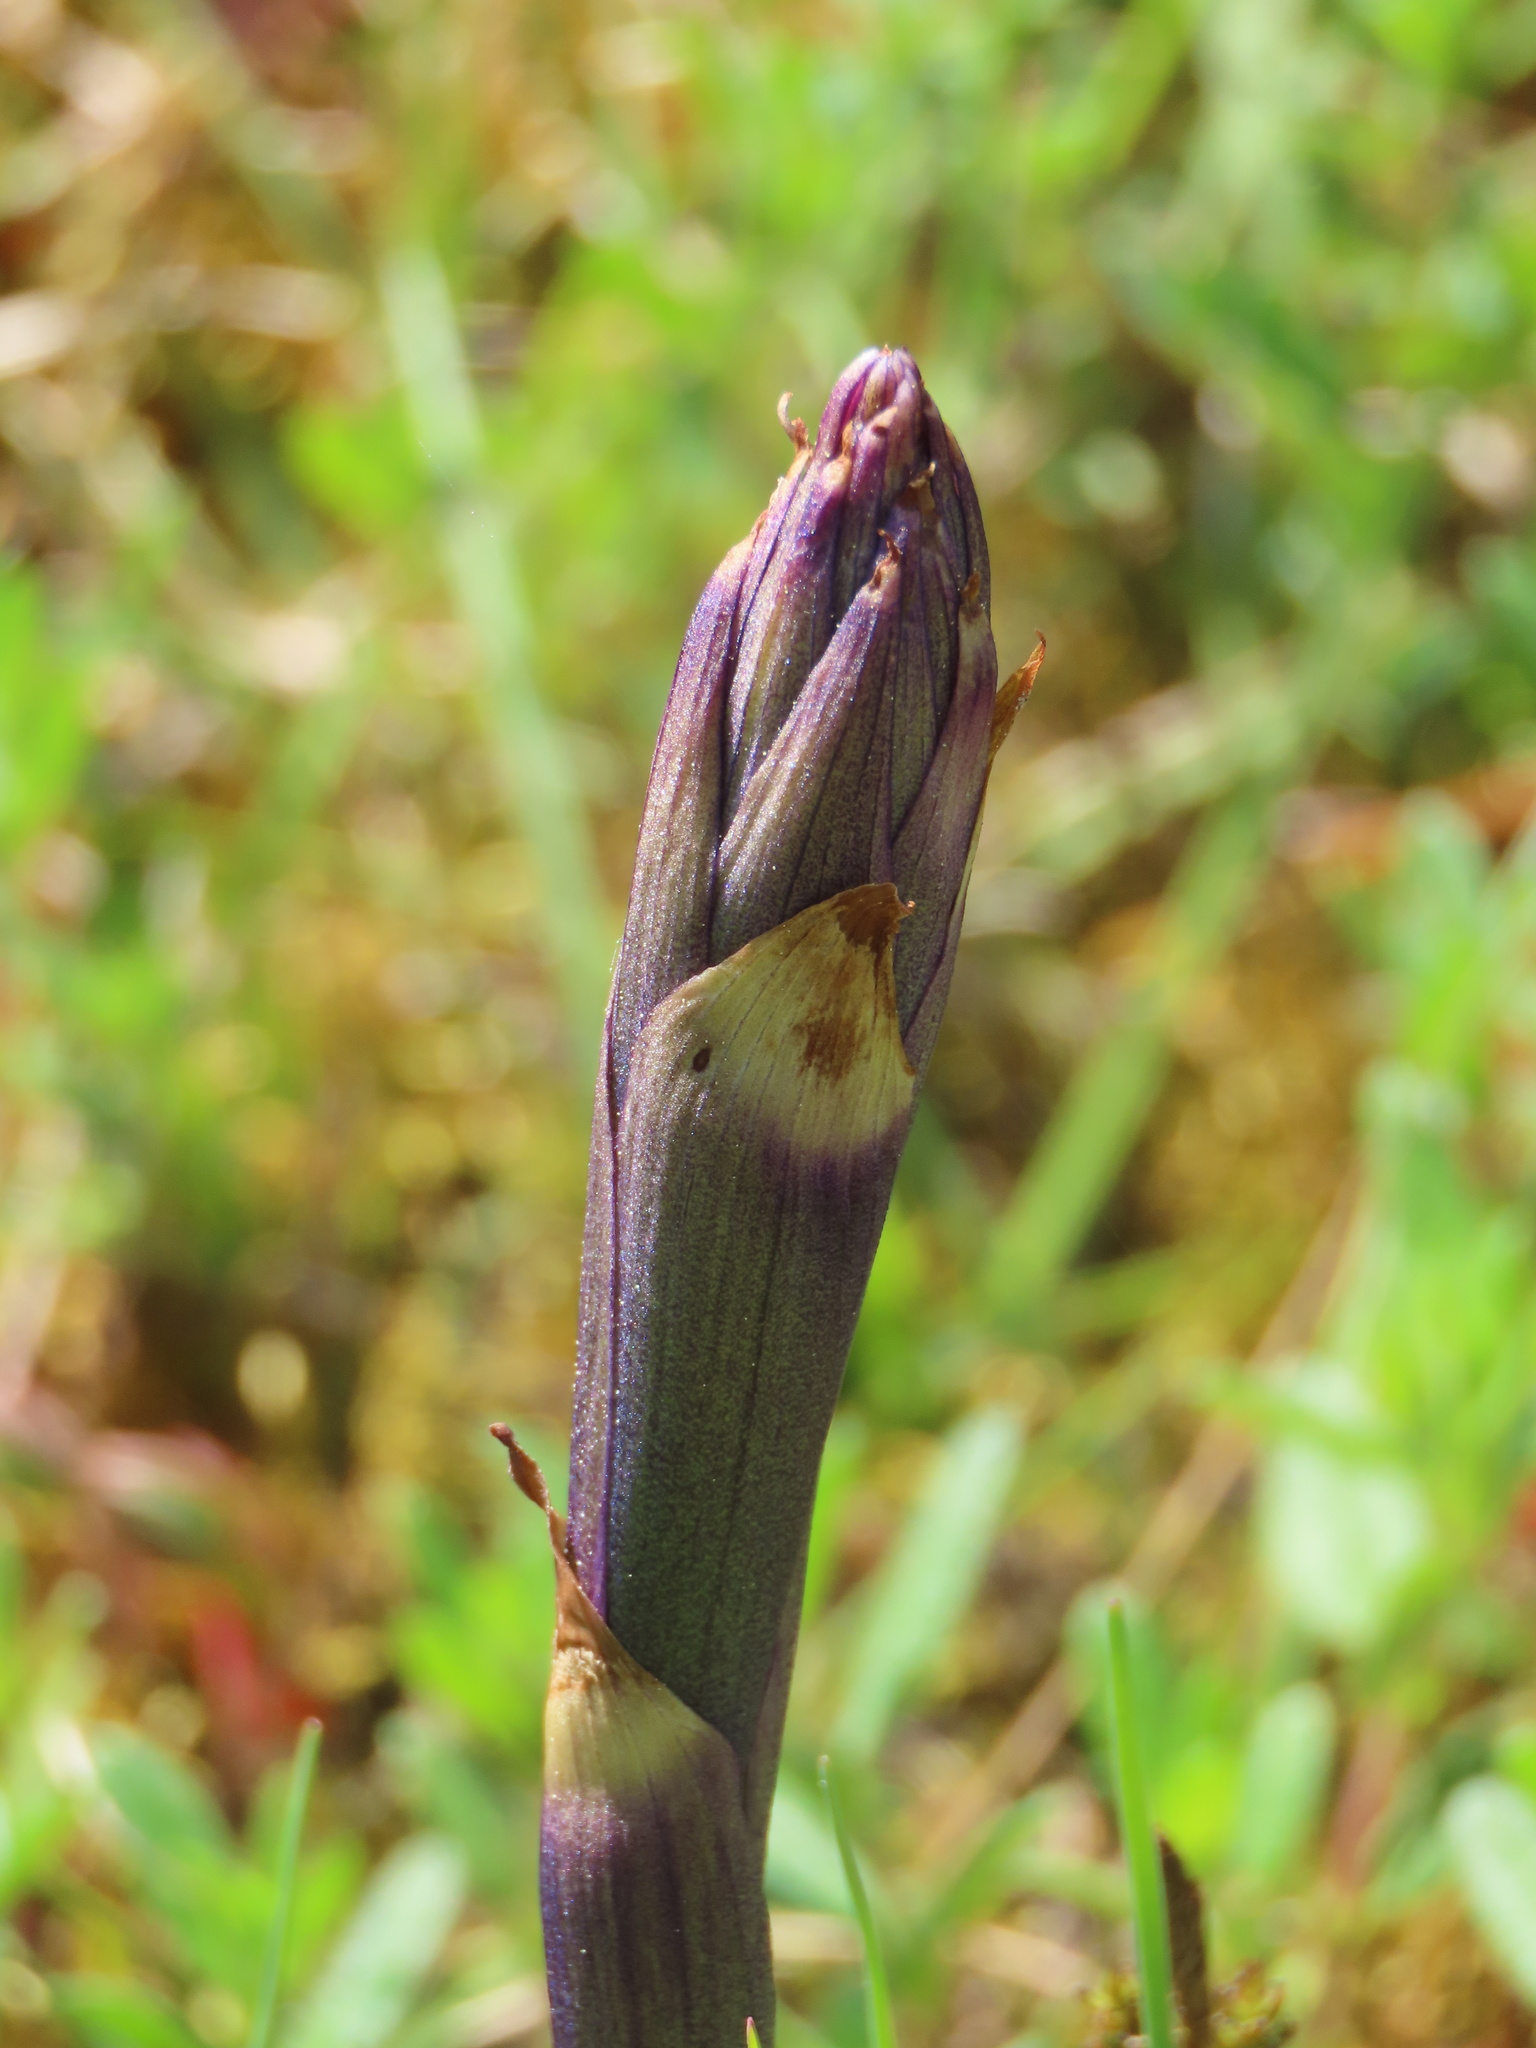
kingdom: Plantae
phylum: Tracheophyta
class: Liliopsida
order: Asparagales
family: Orchidaceae
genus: Limodorum
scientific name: Limodorum abortivum
